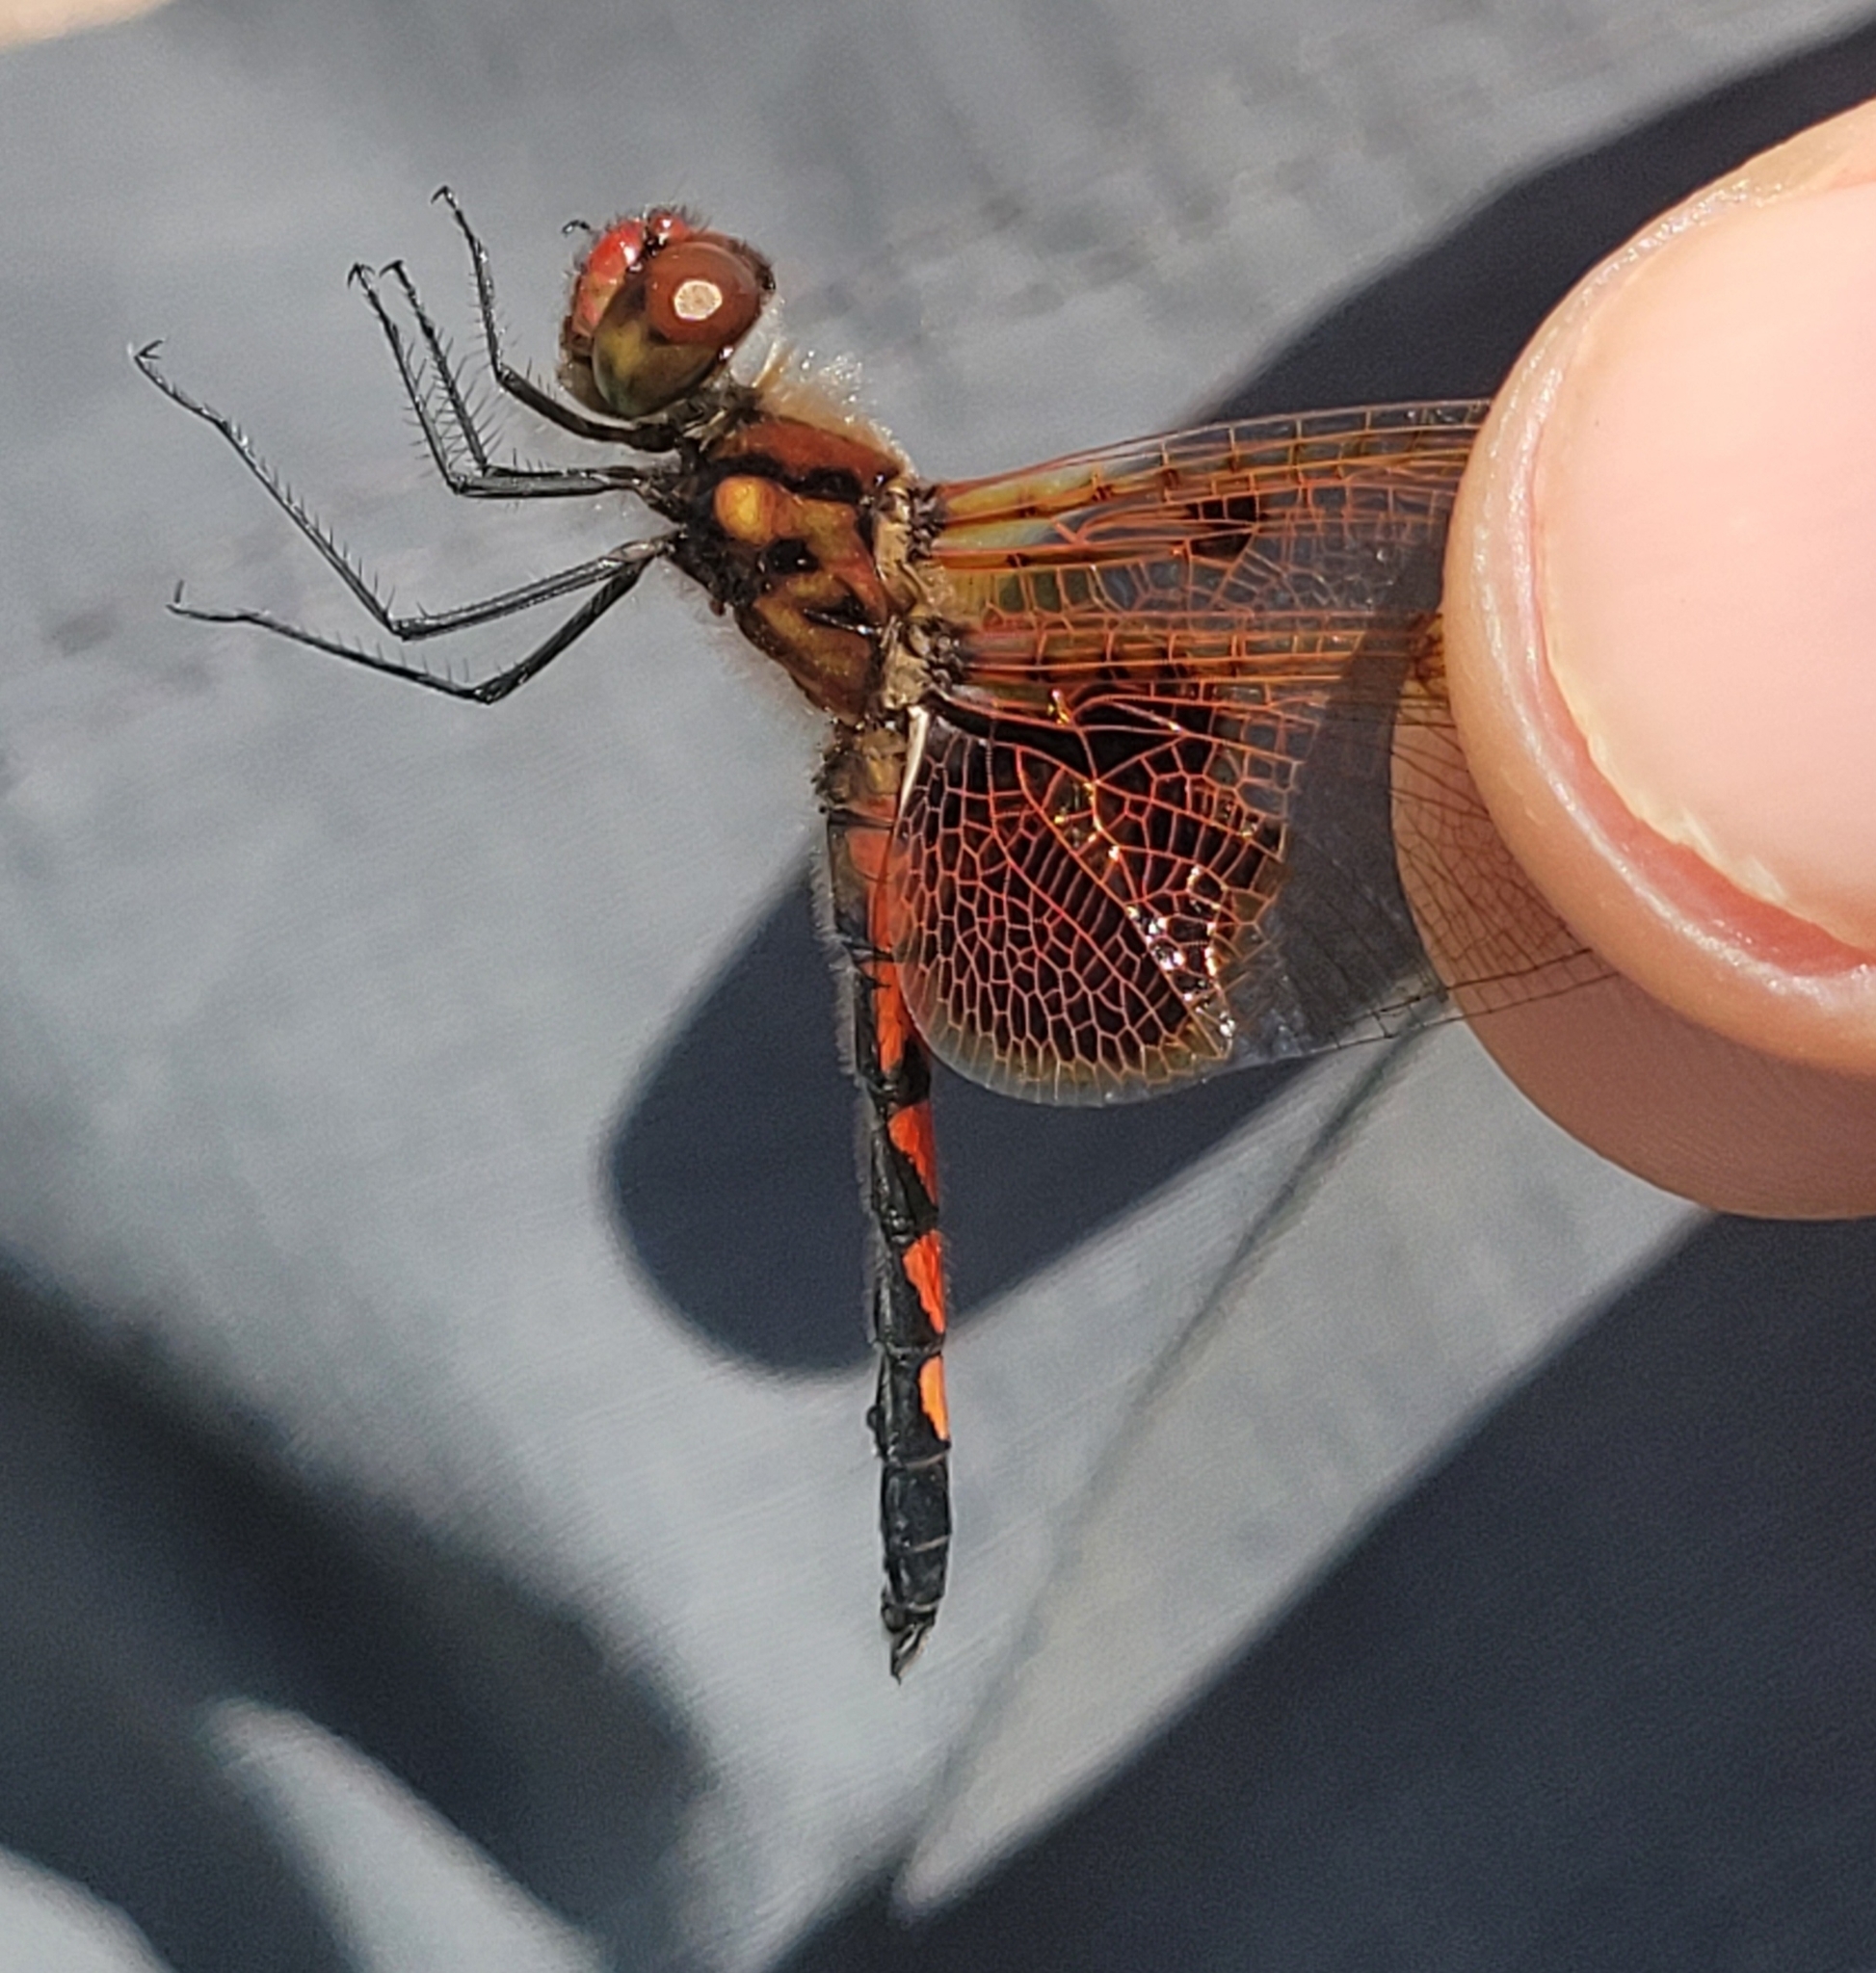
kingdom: Animalia
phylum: Arthropoda
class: Insecta
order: Odonata
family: Libellulidae
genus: Celithemis
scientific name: Celithemis elisa
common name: Calico pennant
